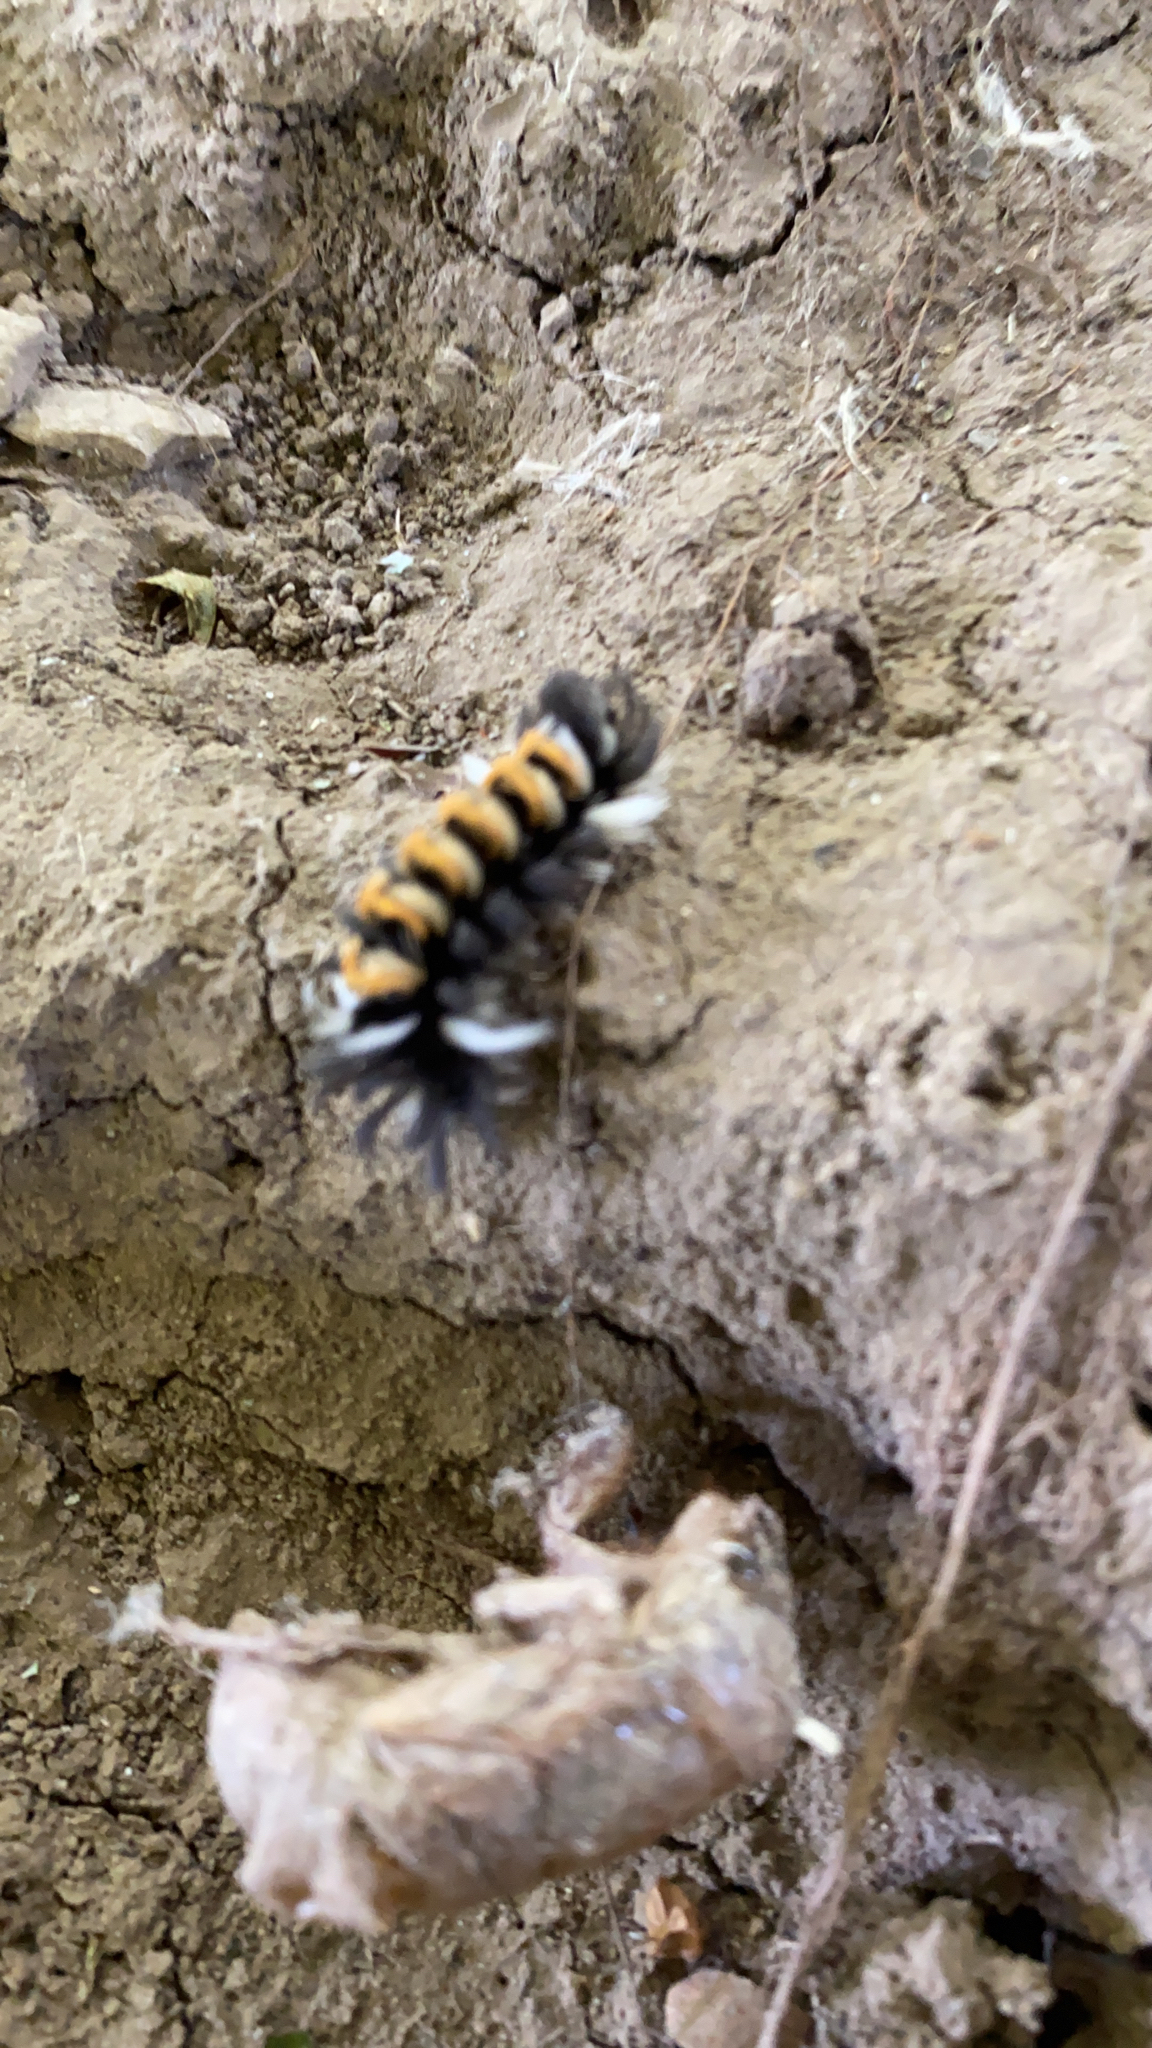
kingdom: Animalia
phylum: Arthropoda
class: Insecta
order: Lepidoptera
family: Erebidae
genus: Euchaetes
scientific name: Euchaetes egle
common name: Milkweed tussock moth
